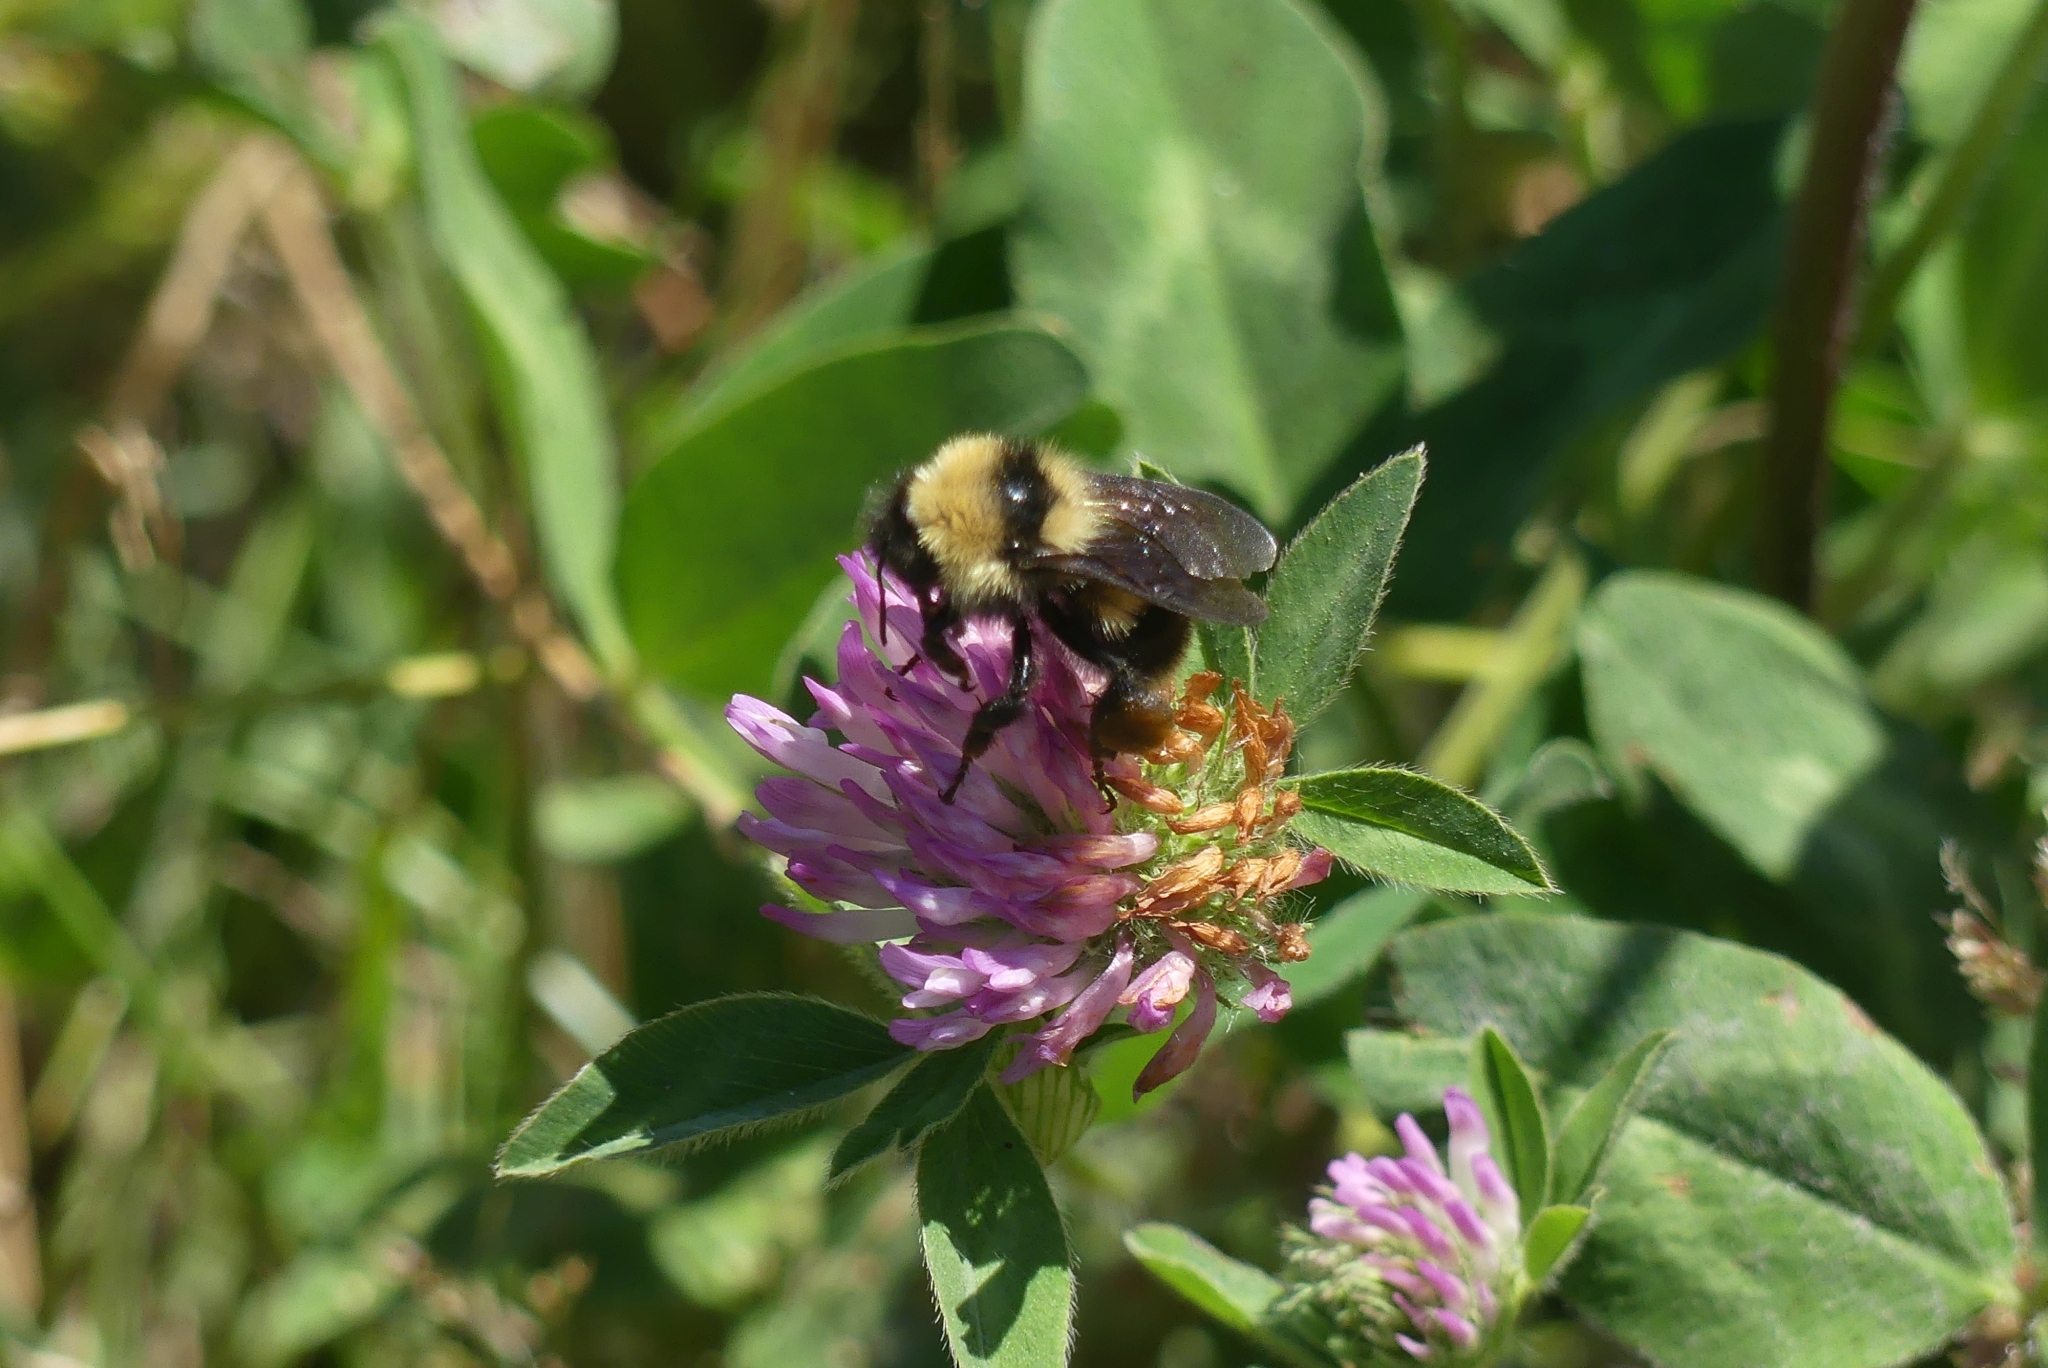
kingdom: Animalia
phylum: Arthropoda
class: Insecta
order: Hymenoptera
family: Apidae
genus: Bombus
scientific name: Bombus californicus
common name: California bumble bee
